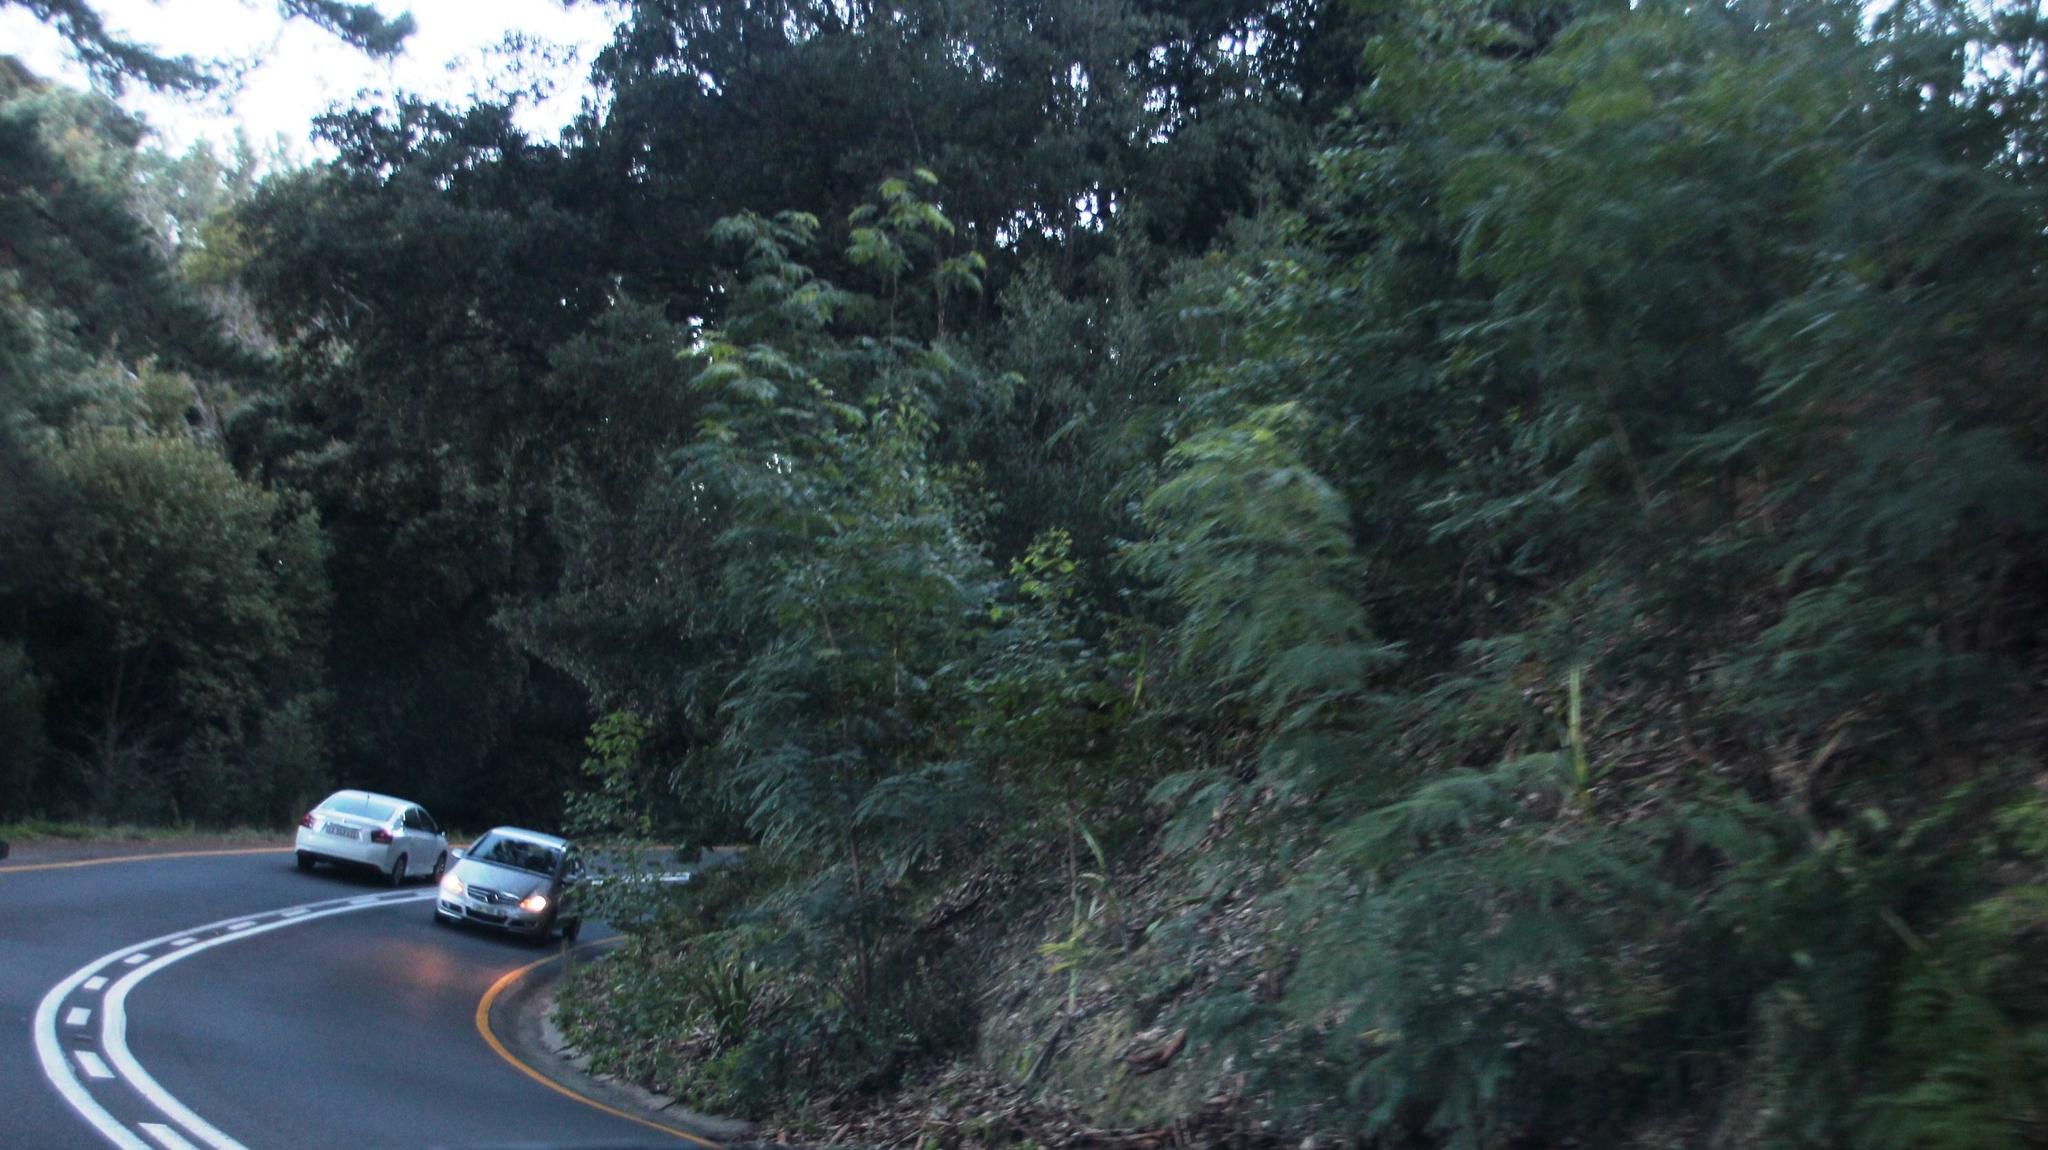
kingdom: Plantae
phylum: Tracheophyta
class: Magnoliopsida
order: Fabales
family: Fabaceae
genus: Acacia
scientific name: Acacia elata
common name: Cedar wattle
